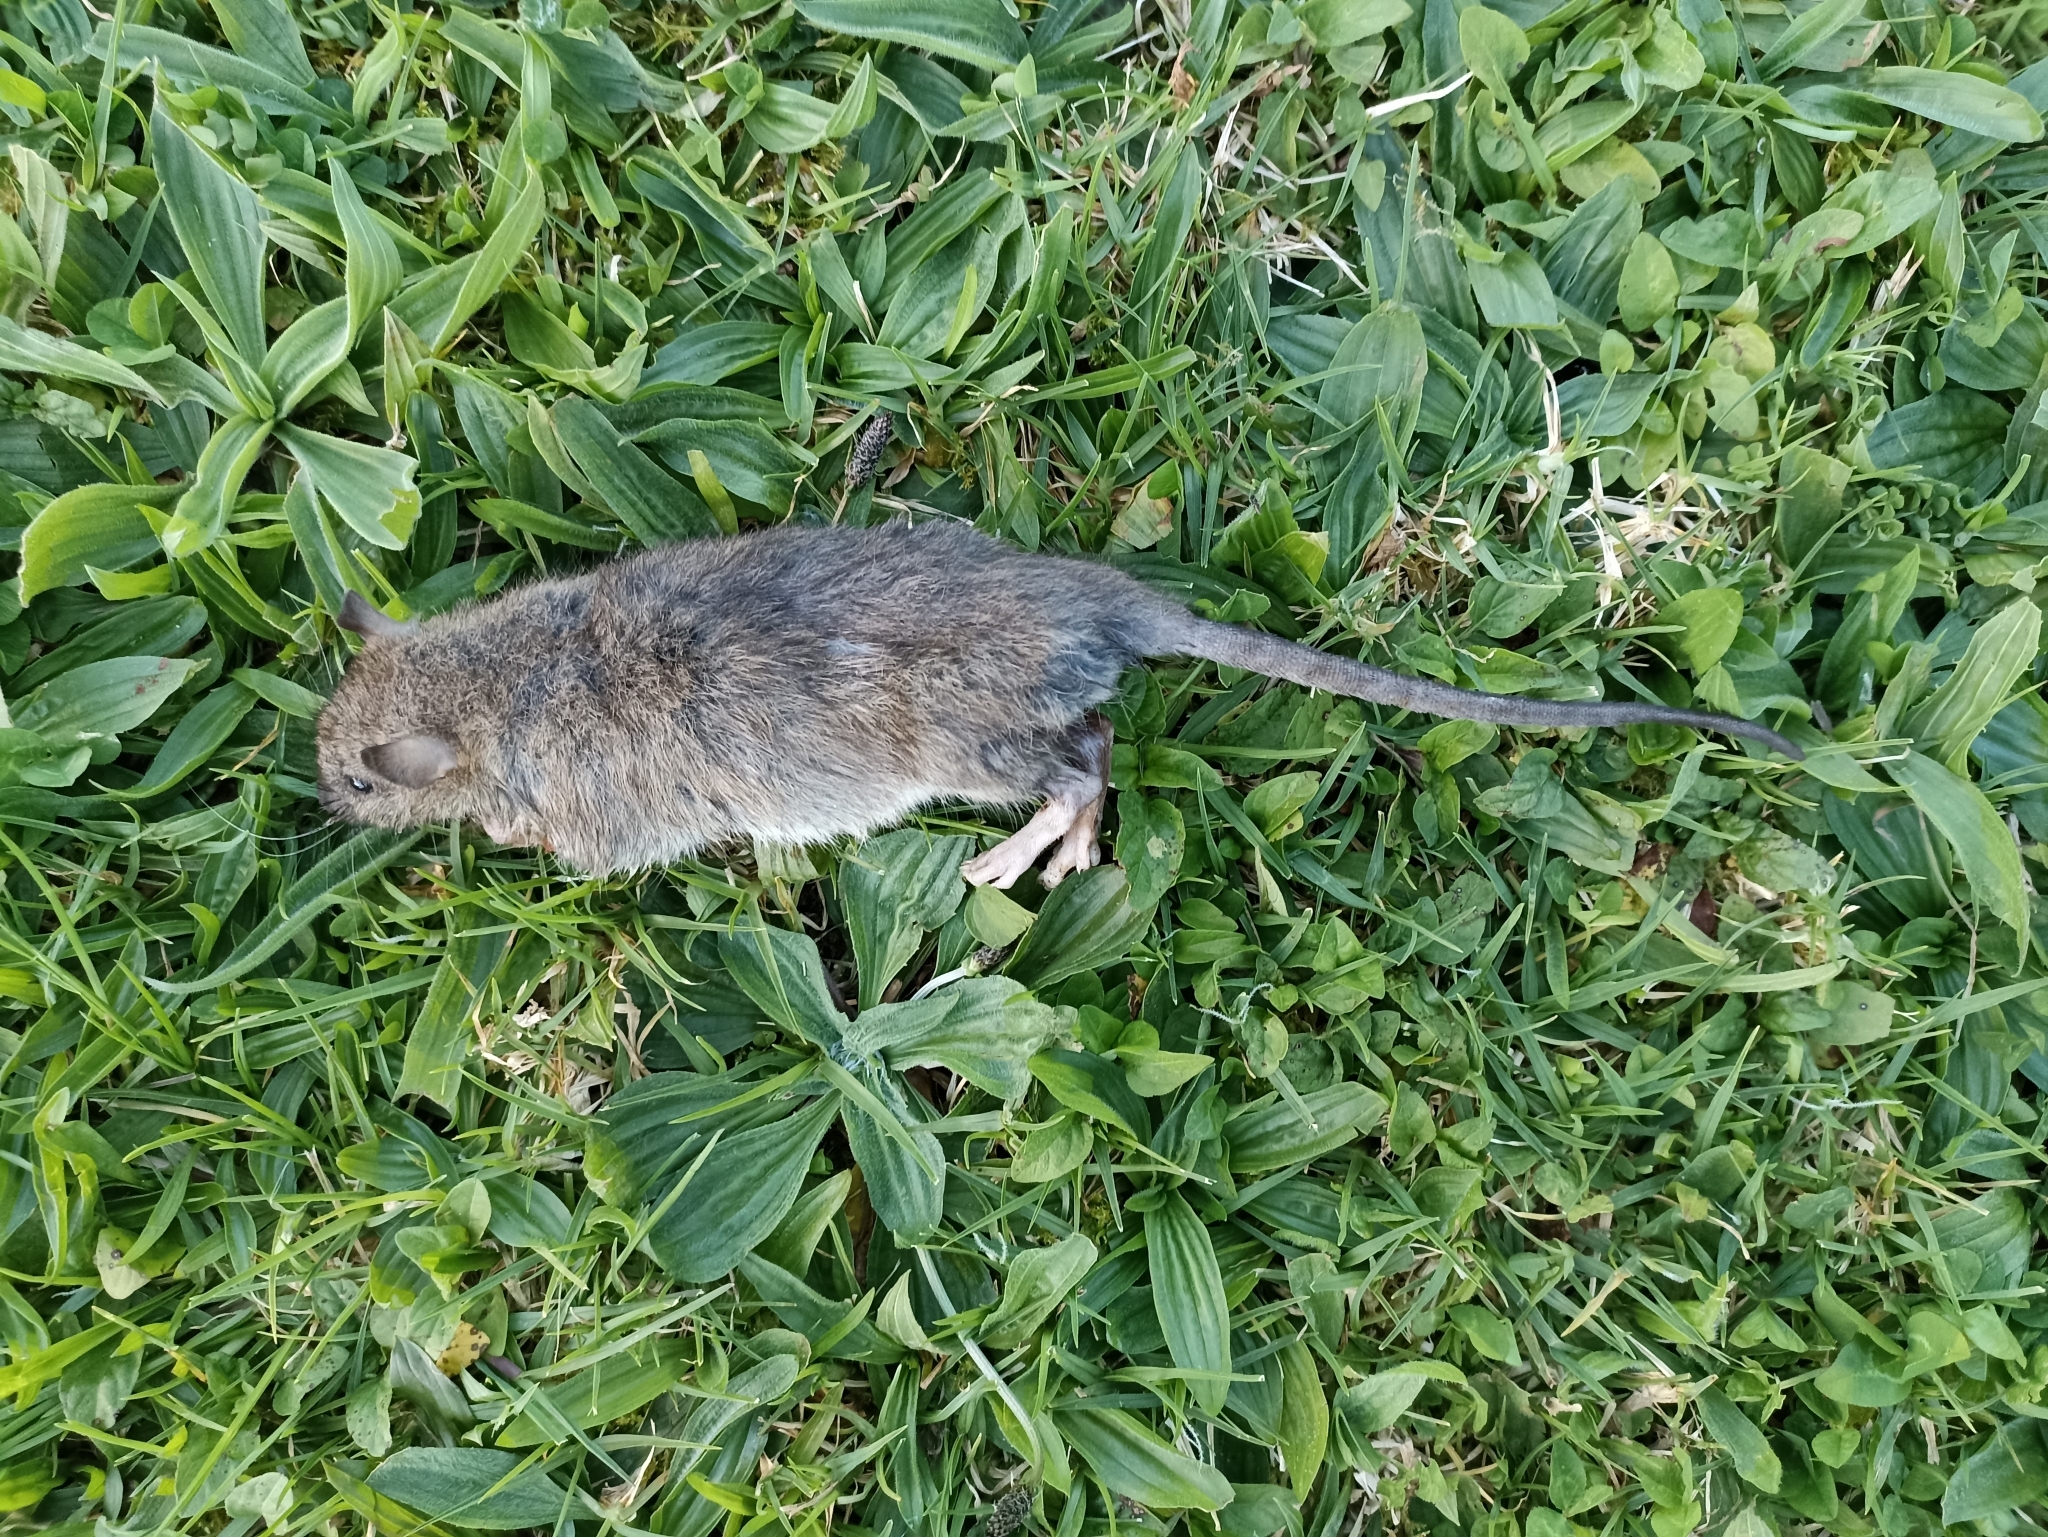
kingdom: Animalia
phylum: Chordata
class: Mammalia
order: Rodentia
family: Muridae
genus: Rattus
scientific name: Rattus norvegicus
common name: Brown rat
